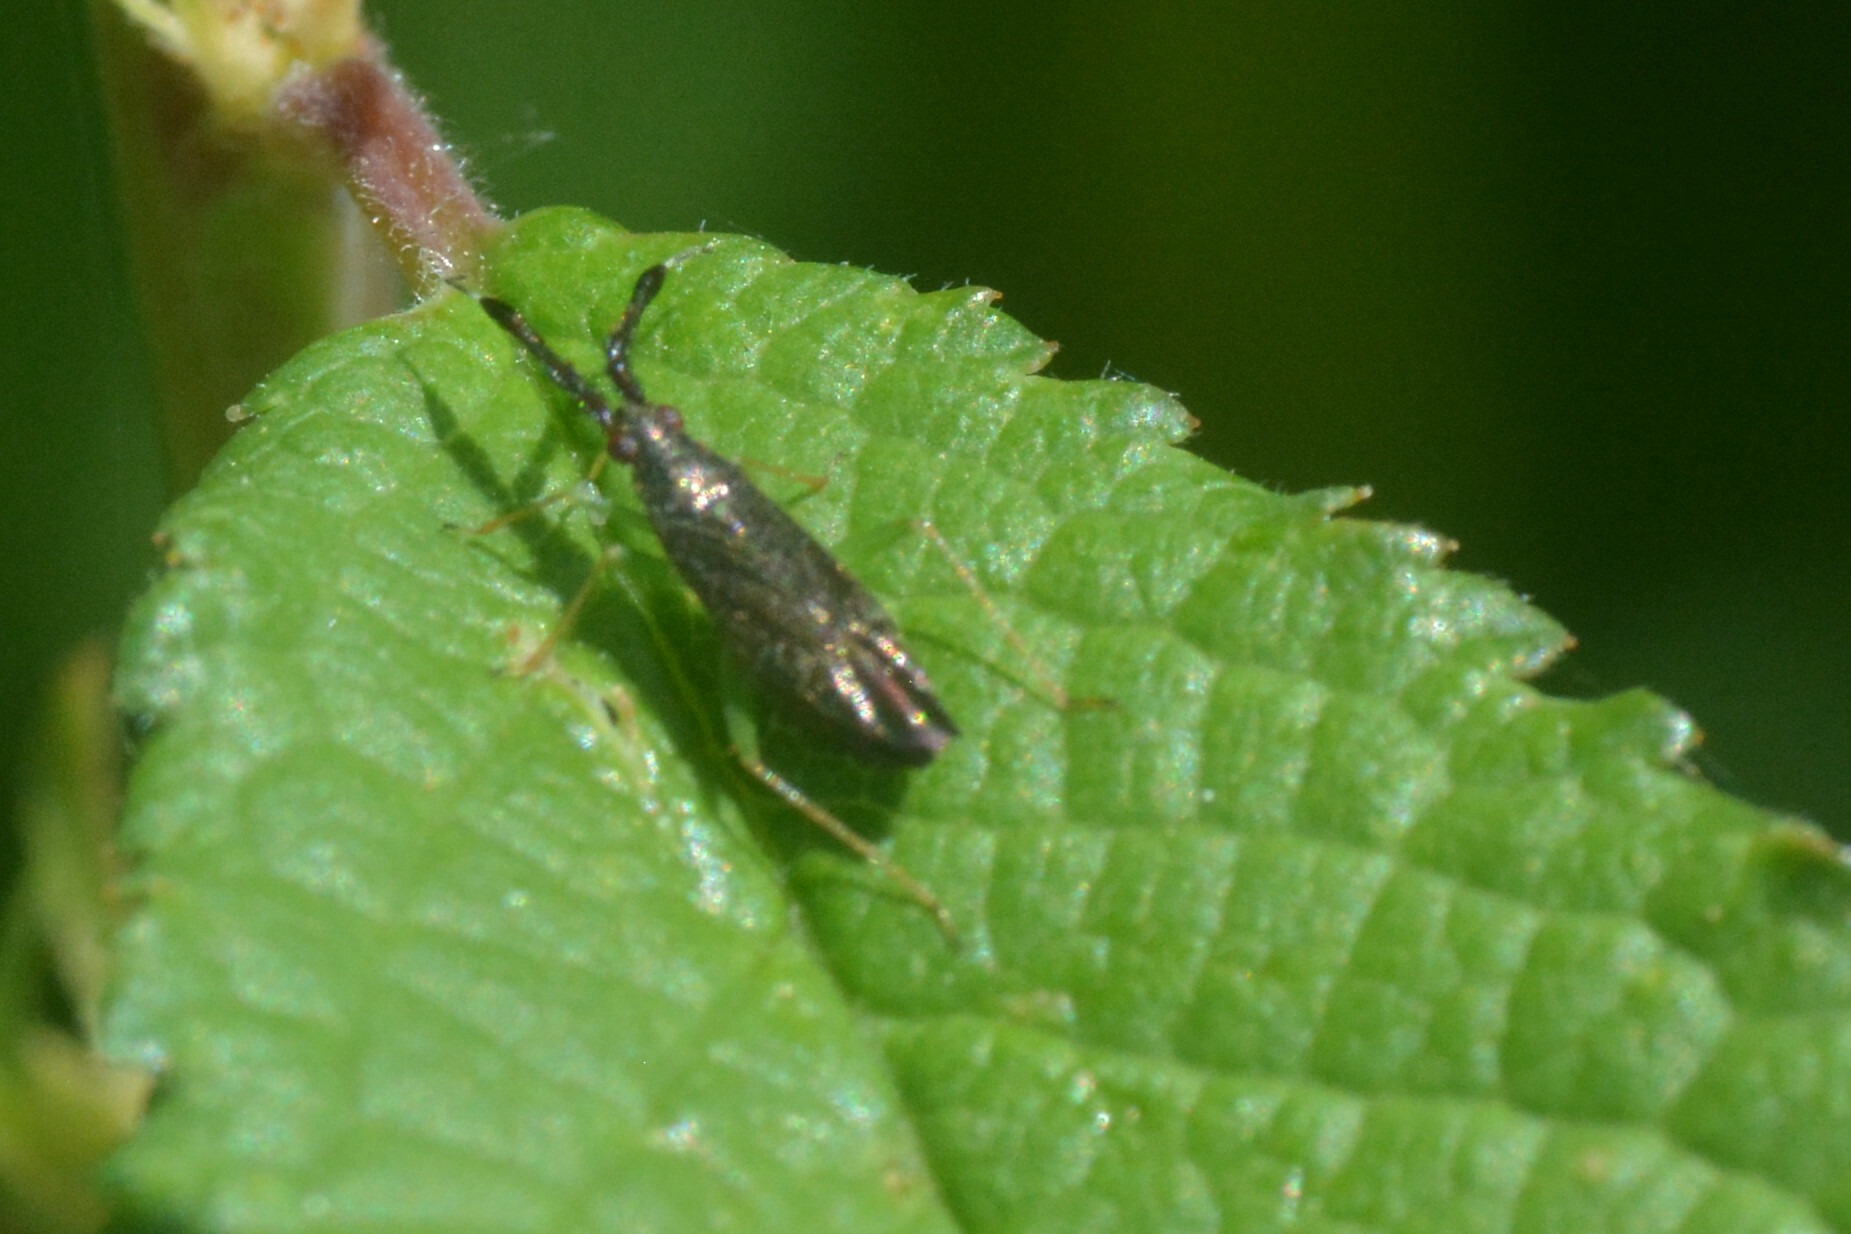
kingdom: Animalia
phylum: Arthropoda
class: Insecta
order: Hemiptera
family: Miridae
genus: Heterotoma
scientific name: Heterotoma planicornis
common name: Plant bug
